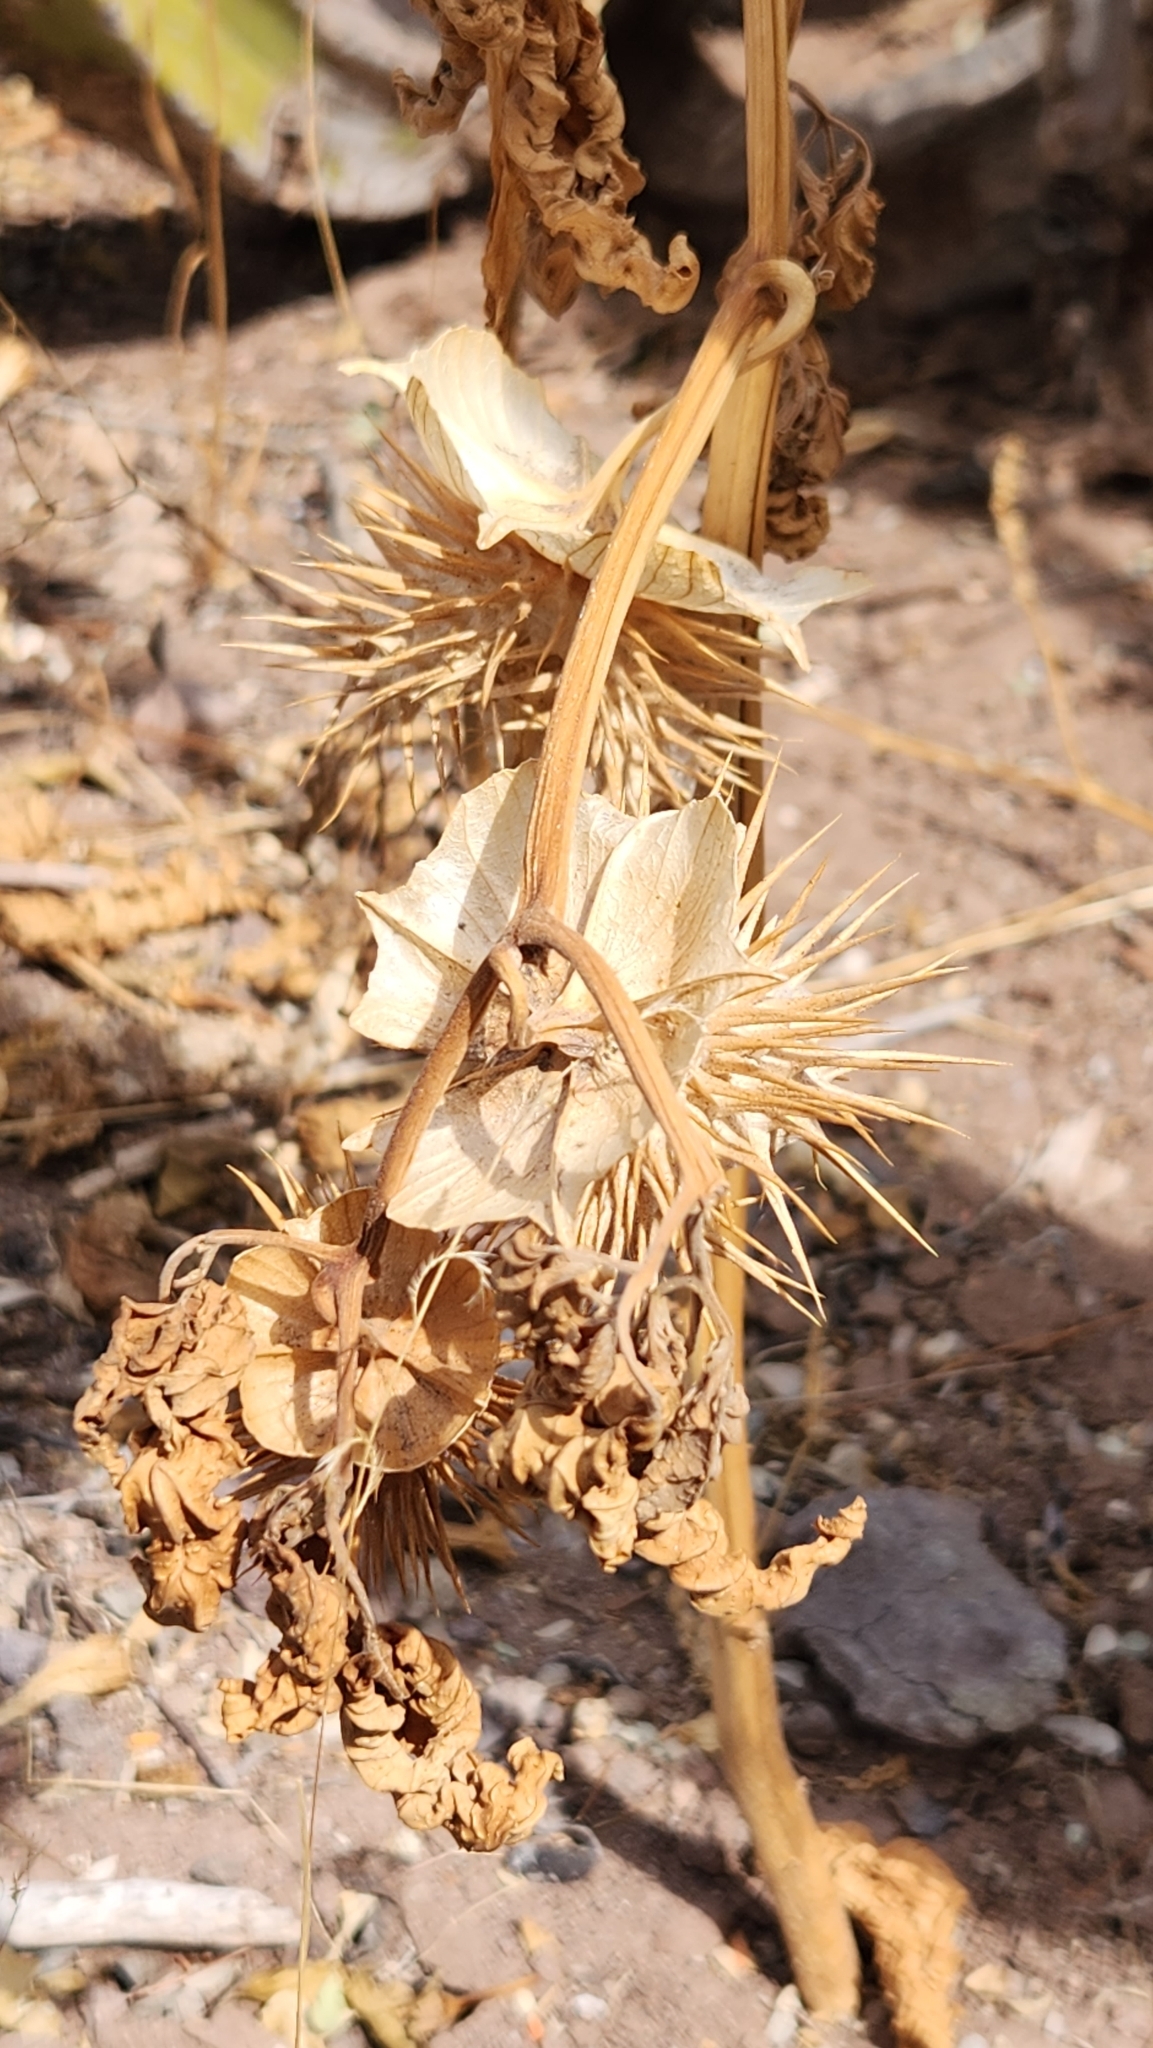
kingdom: Plantae
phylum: Tracheophyta
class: Magnoliopsida
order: Solanales
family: Solanaceae
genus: Datura
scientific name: Datura discolor
